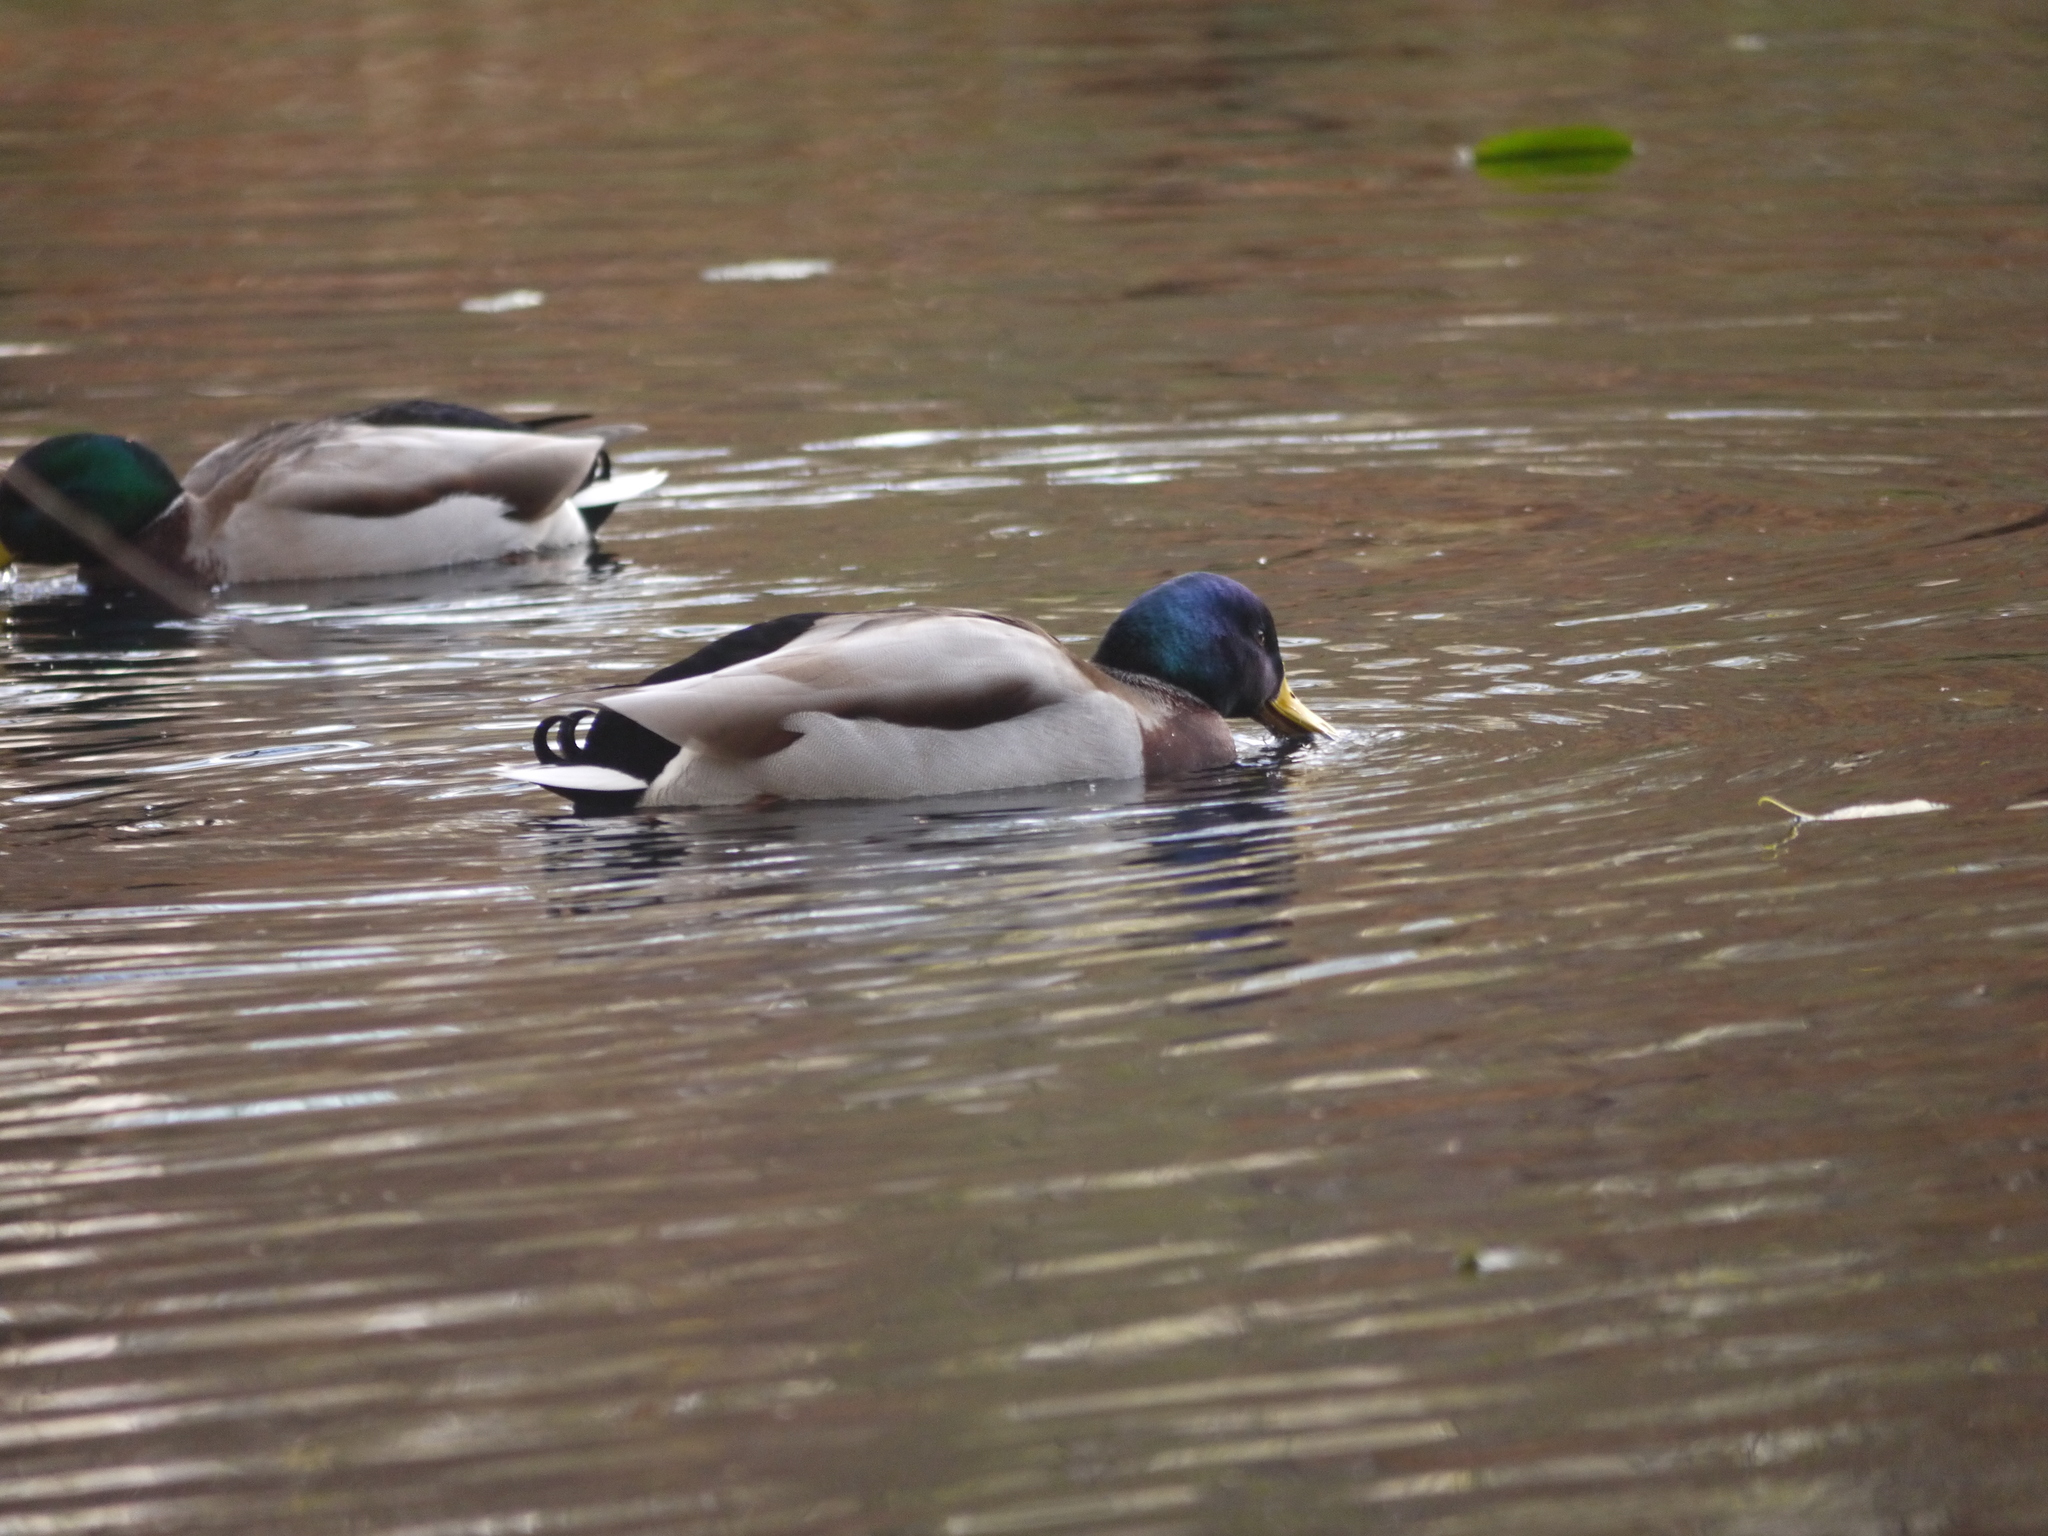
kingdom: Animalia
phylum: Chordata
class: Aves
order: Anseriformes
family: Anatidae
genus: Anas
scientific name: Anas platyrhynchos
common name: Mallard
